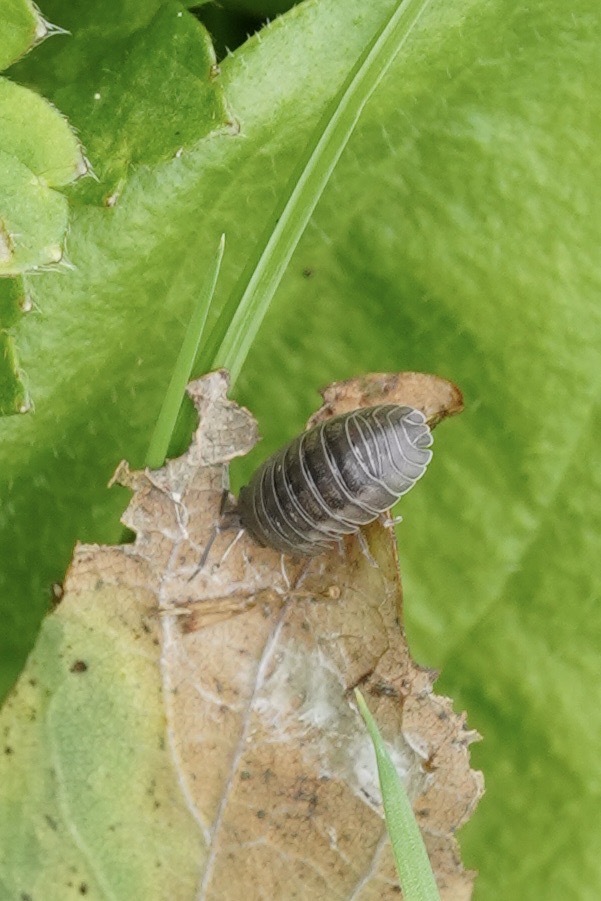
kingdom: Animalia
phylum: Arthropoda
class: Malacostraca
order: Isopoda
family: Armadillidiidae
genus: Armadillidium
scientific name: Armadillidium nasatum
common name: Isopod
